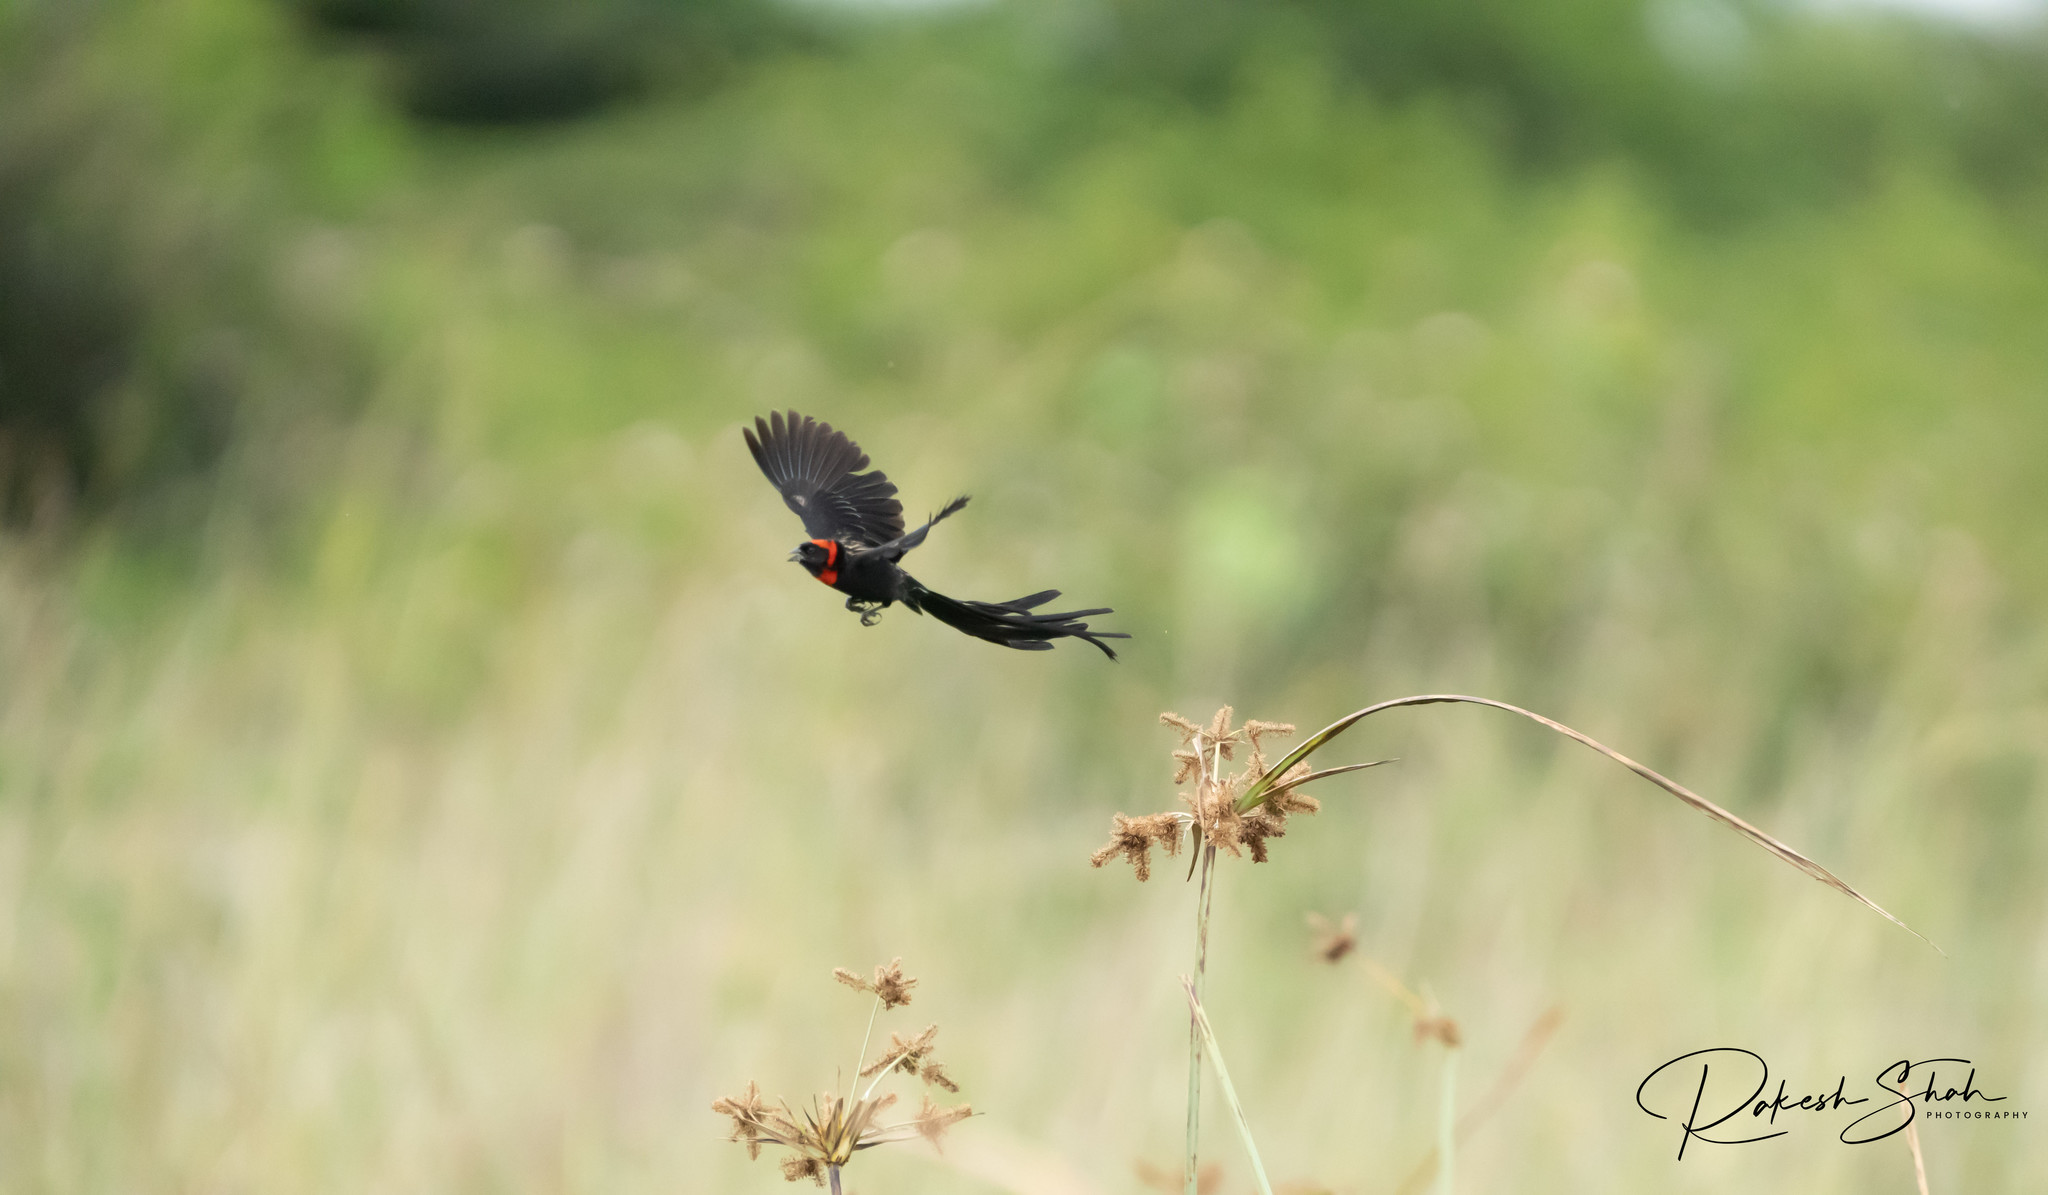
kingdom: Animalia
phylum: Chordata
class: Aves
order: Passeriformes
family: Ploceidae
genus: Euplectes
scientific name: Euplectes ardens
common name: Red-collared widowbird
